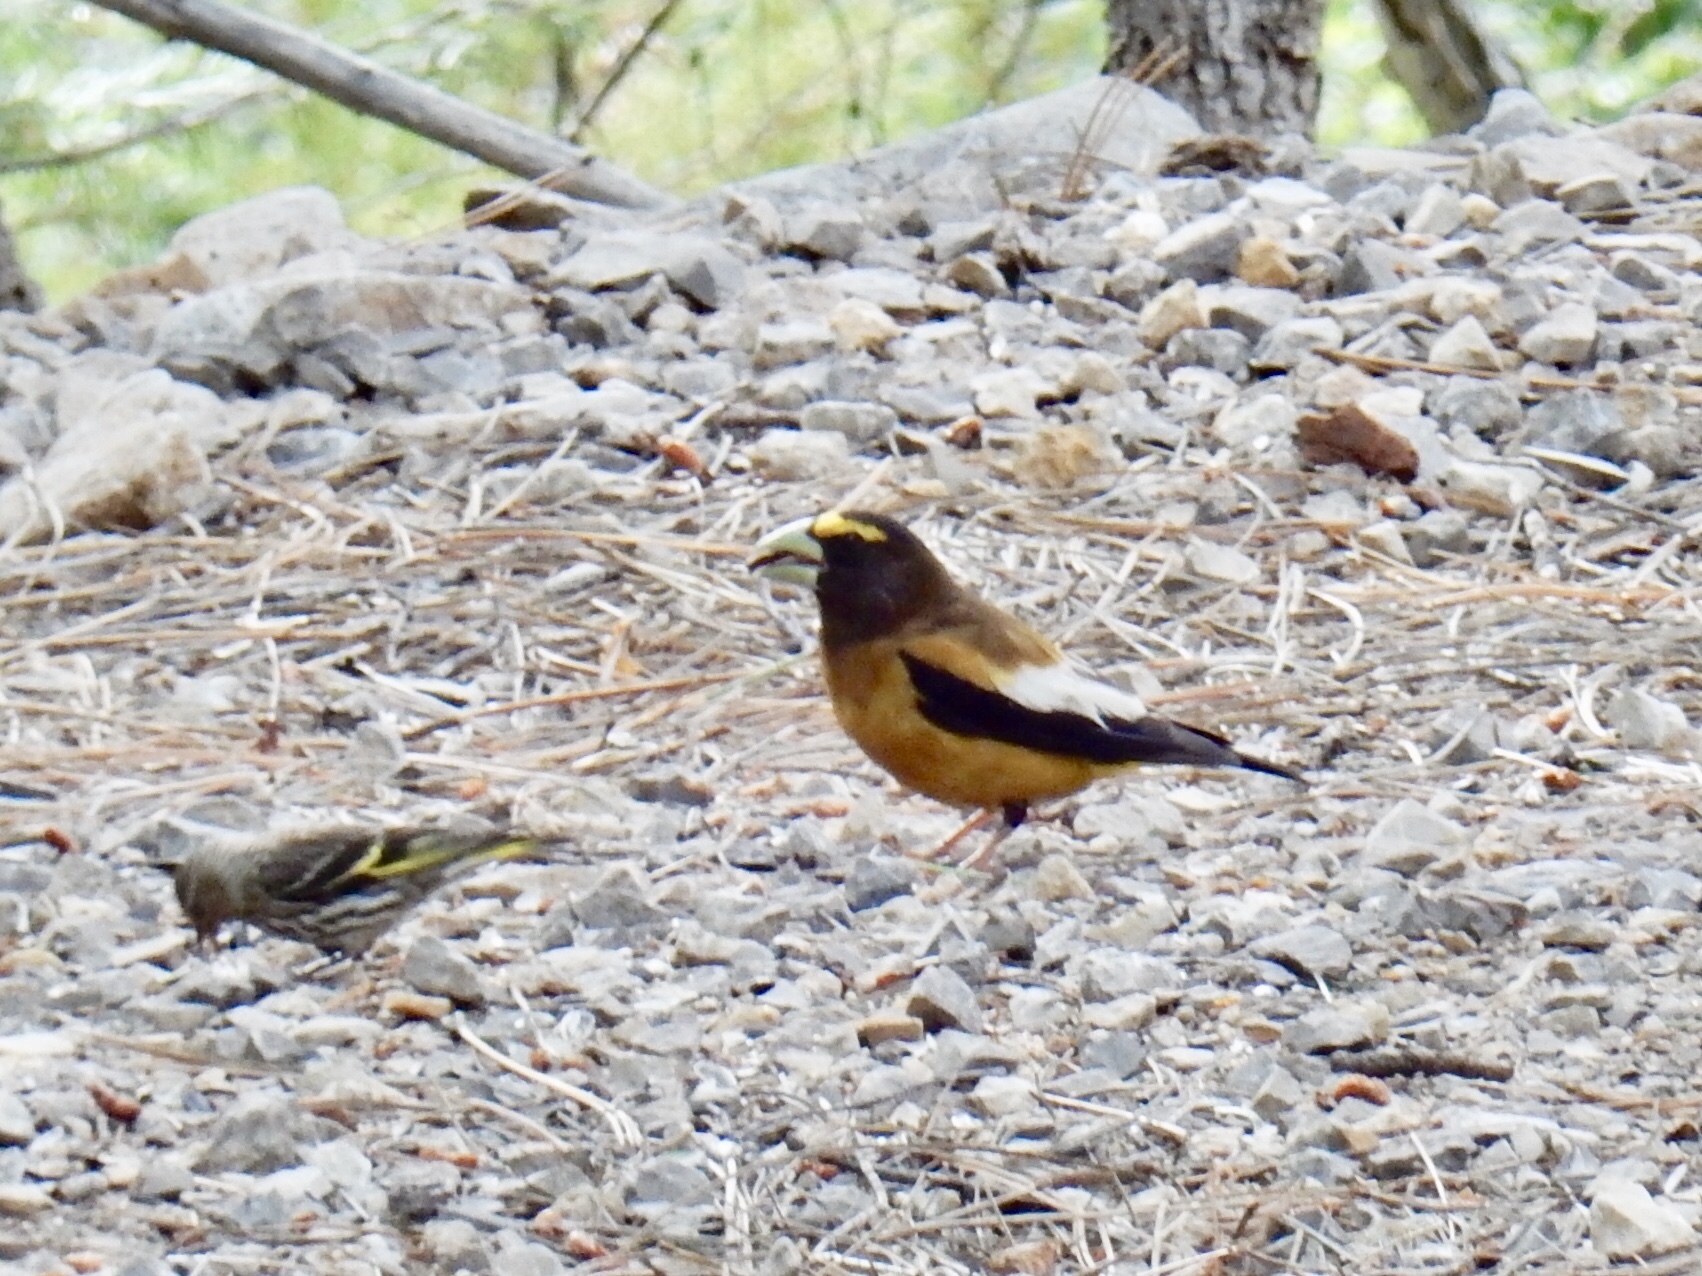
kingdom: Animalia
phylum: Chordata
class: Aves
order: Passeriformes
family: Fringillidae
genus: Hesperiphona
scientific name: Hesperiphona vespertina
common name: Evening grosbeak
